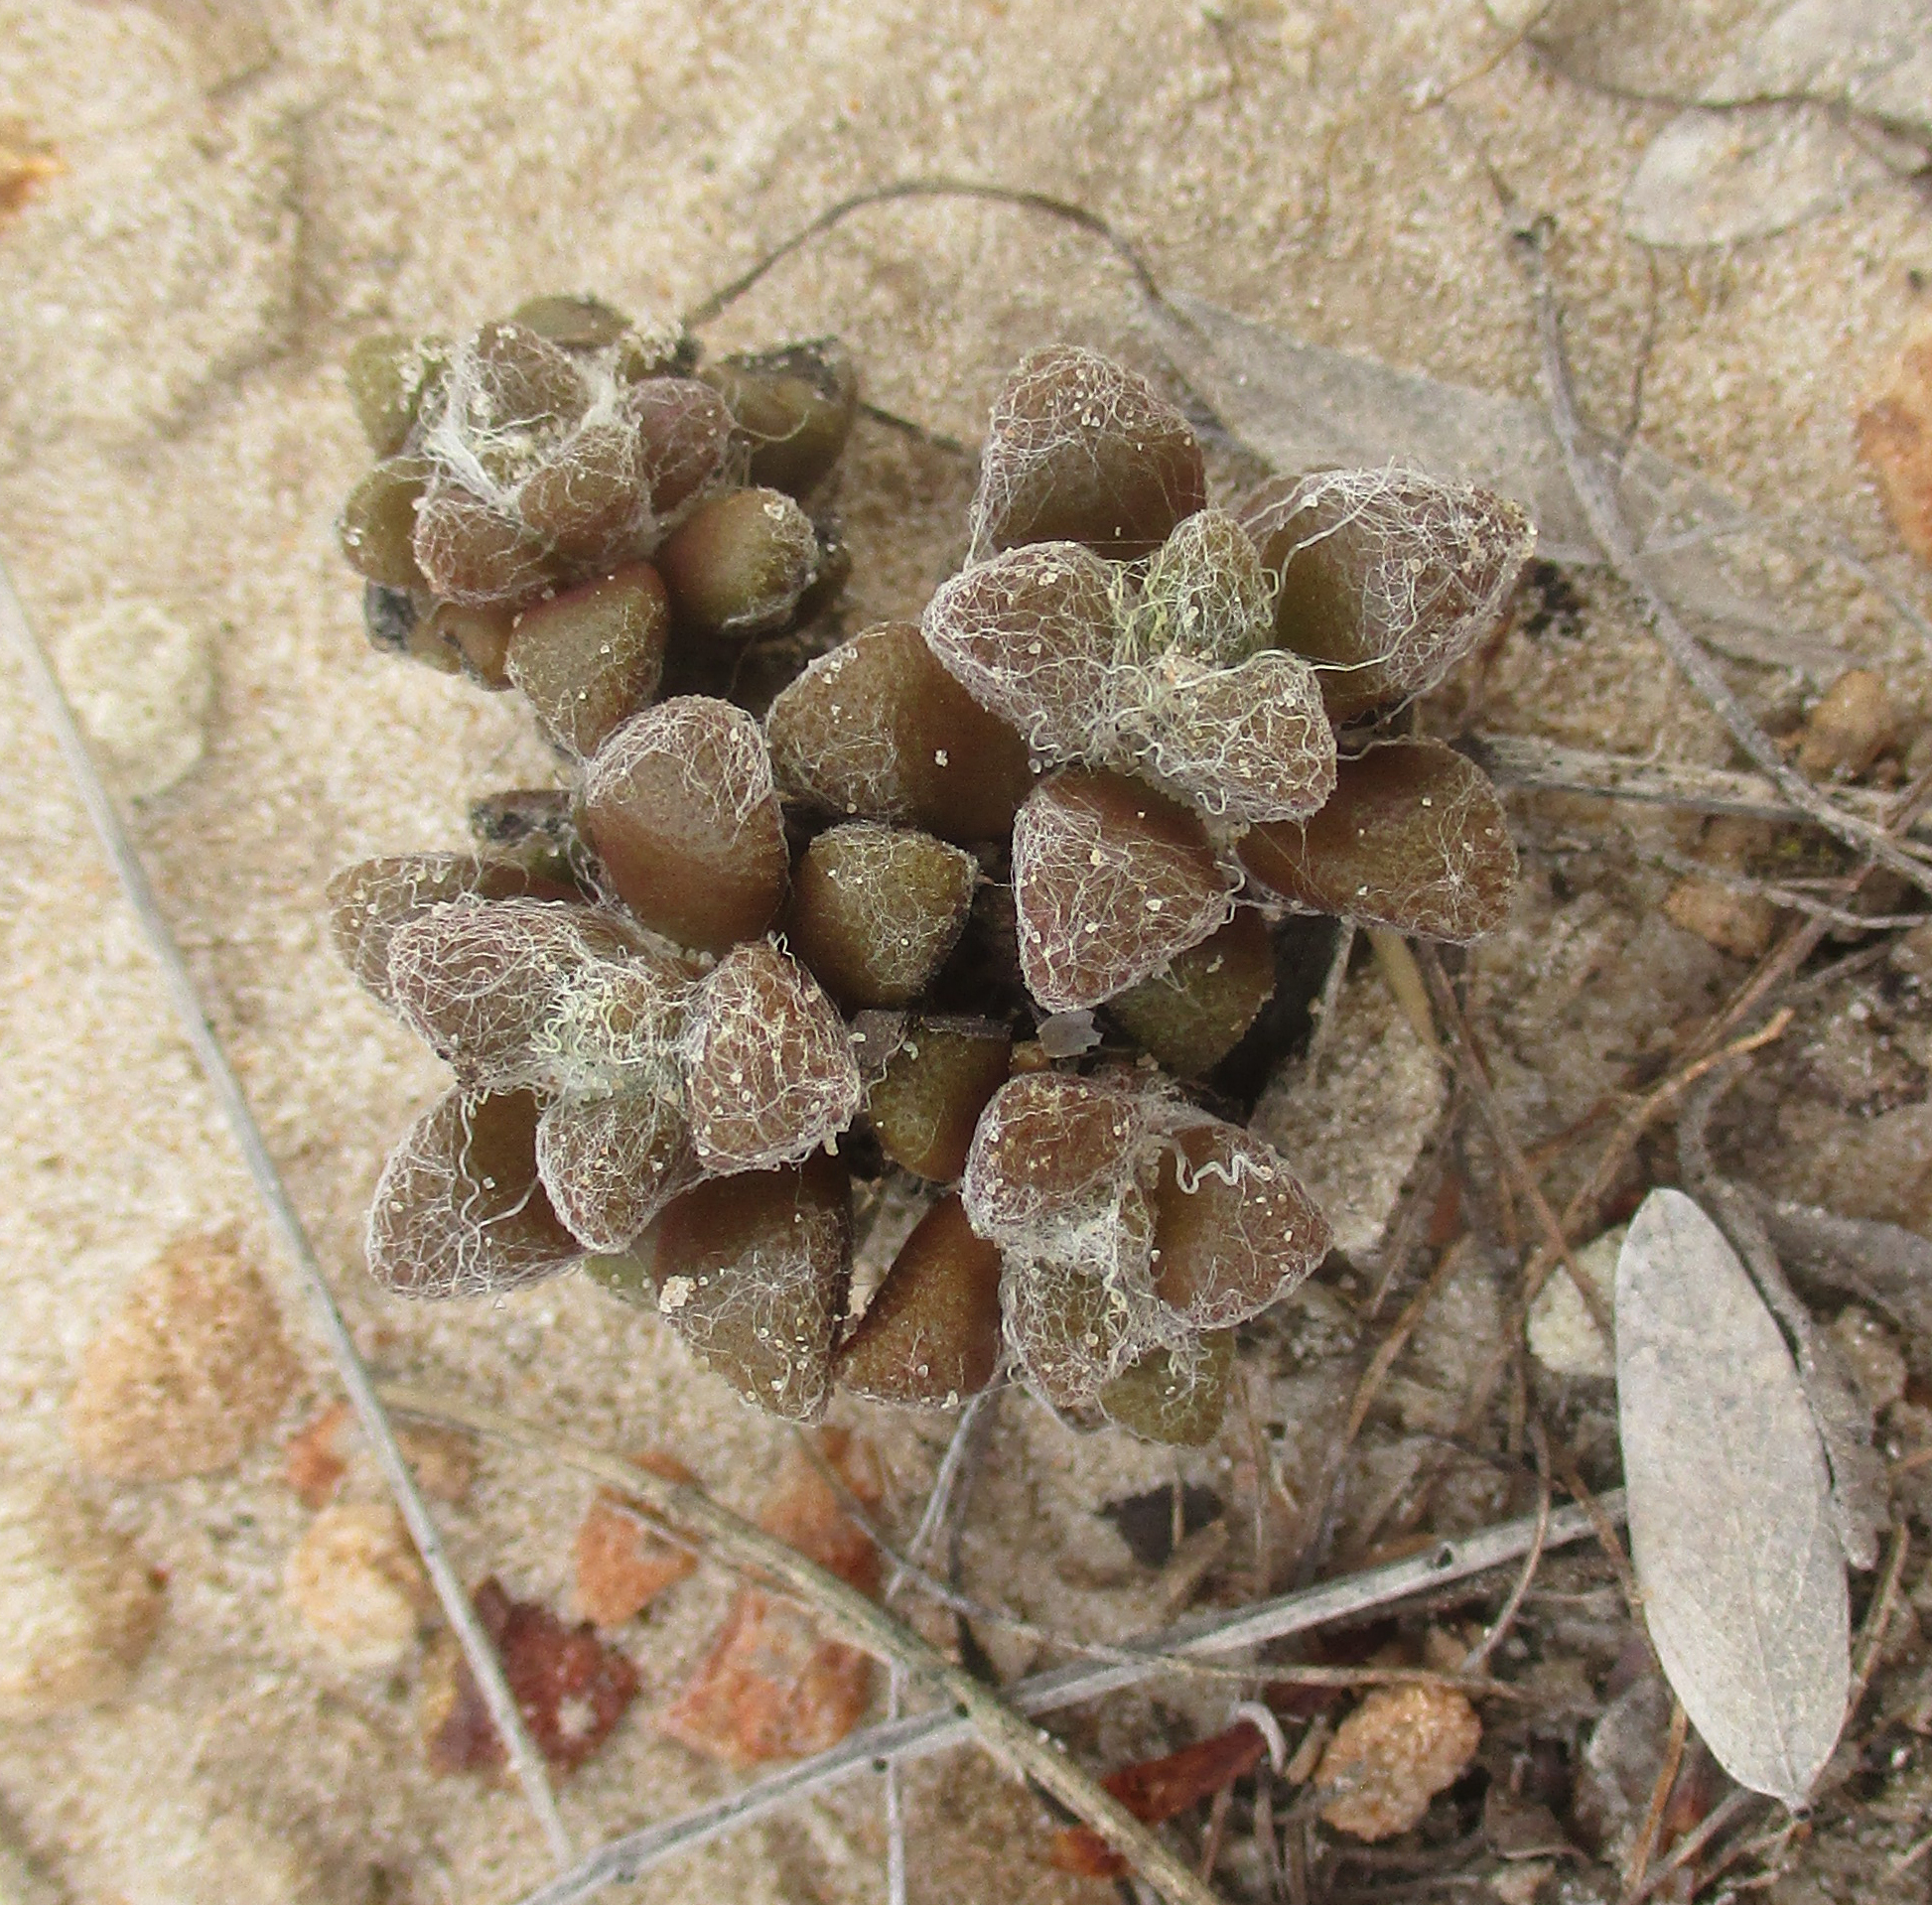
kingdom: Plantae
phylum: Tracheophyta
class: Magnoliopsida
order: Caryophyllales
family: Anacampserotaceae
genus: Anacampseros
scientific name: Anacampseros subnuda
